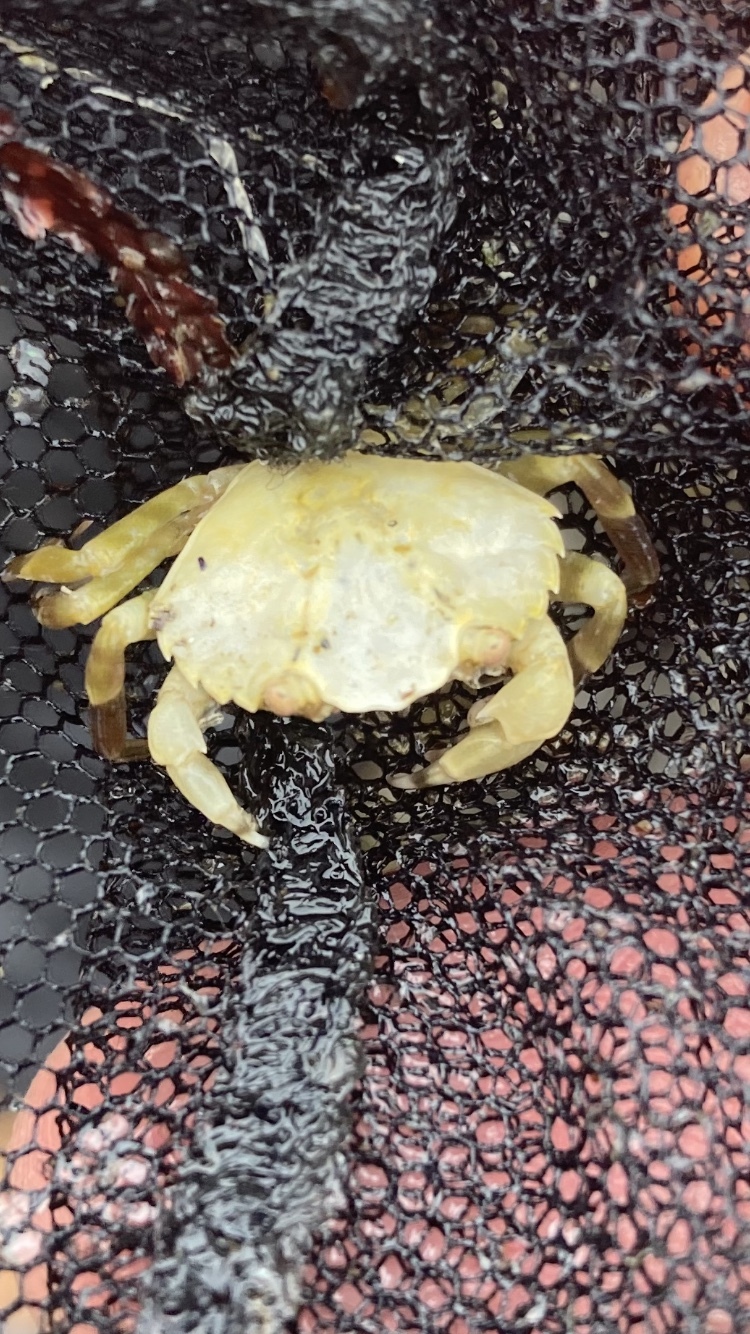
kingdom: Animalia
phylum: Arthropoda
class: Malacostraca
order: Decapoda
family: Carcinidae
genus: Carcinus
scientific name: Carcinus maenas
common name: European green crab
